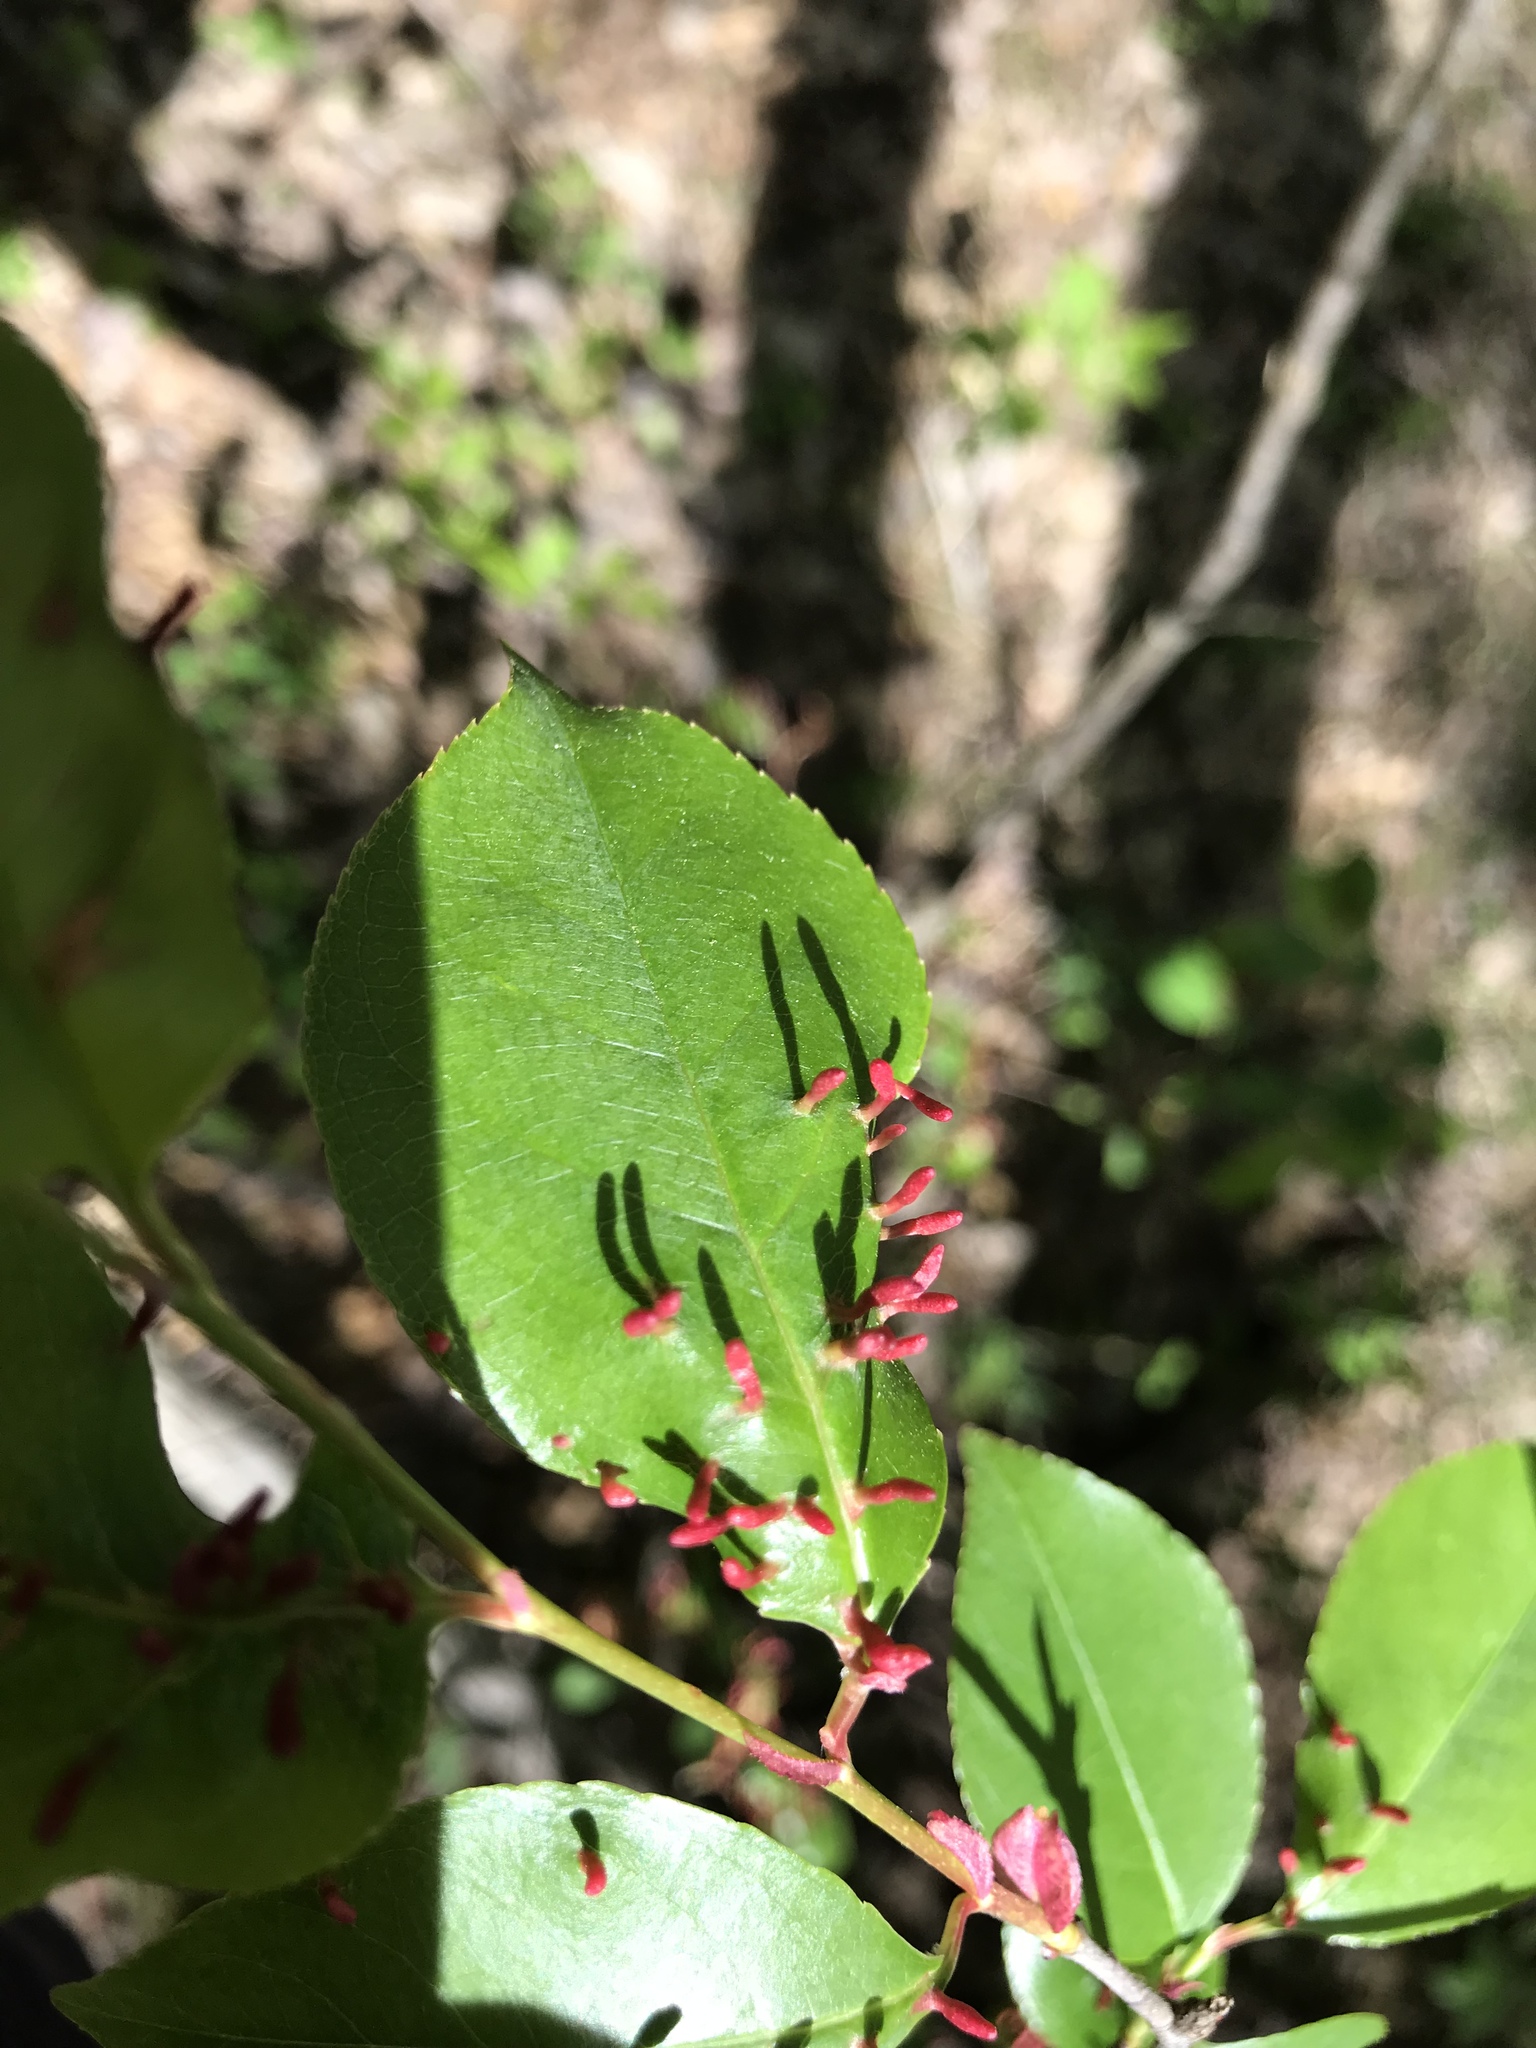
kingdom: Animalia
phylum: Arthropoda
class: Arachnida
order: Trombidiformes
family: Eriophyidae
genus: Eriophyes
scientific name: Eriophyes
